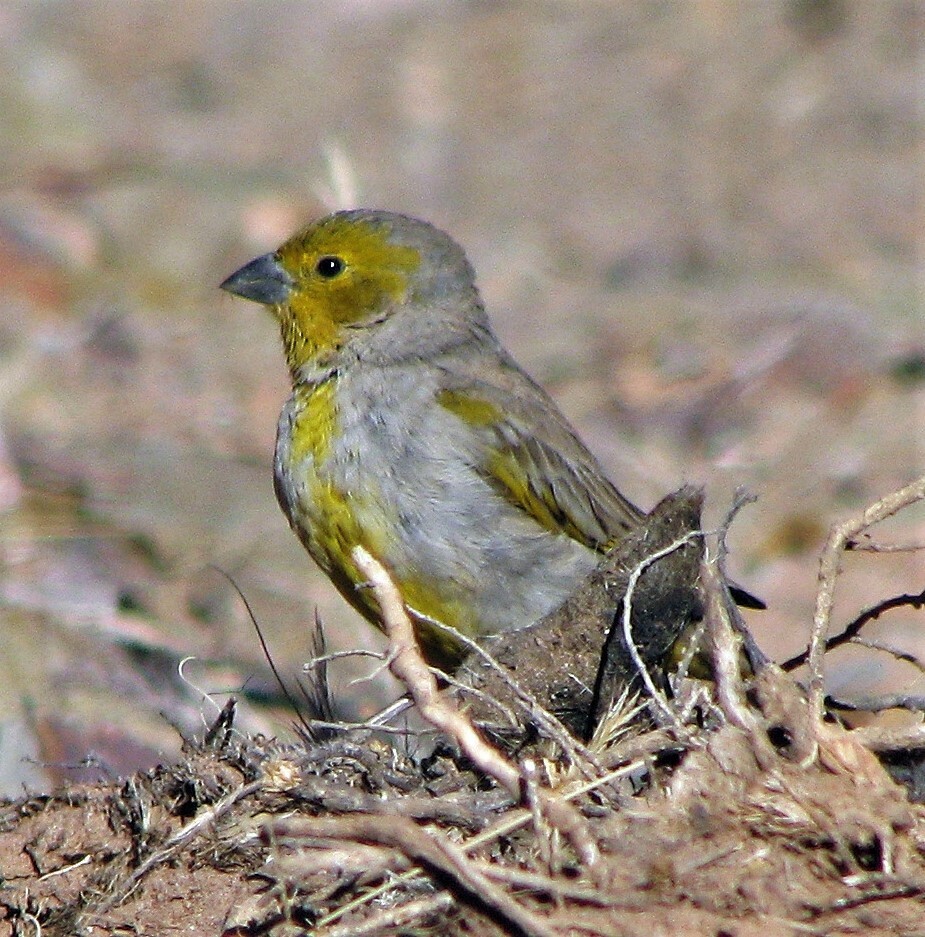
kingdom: Animalia
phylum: Chordata
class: Aves
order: Passeriformes
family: Thraupidae
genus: Sicalis
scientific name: Sicalis luteocephala
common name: Citron-headed yellow finch
